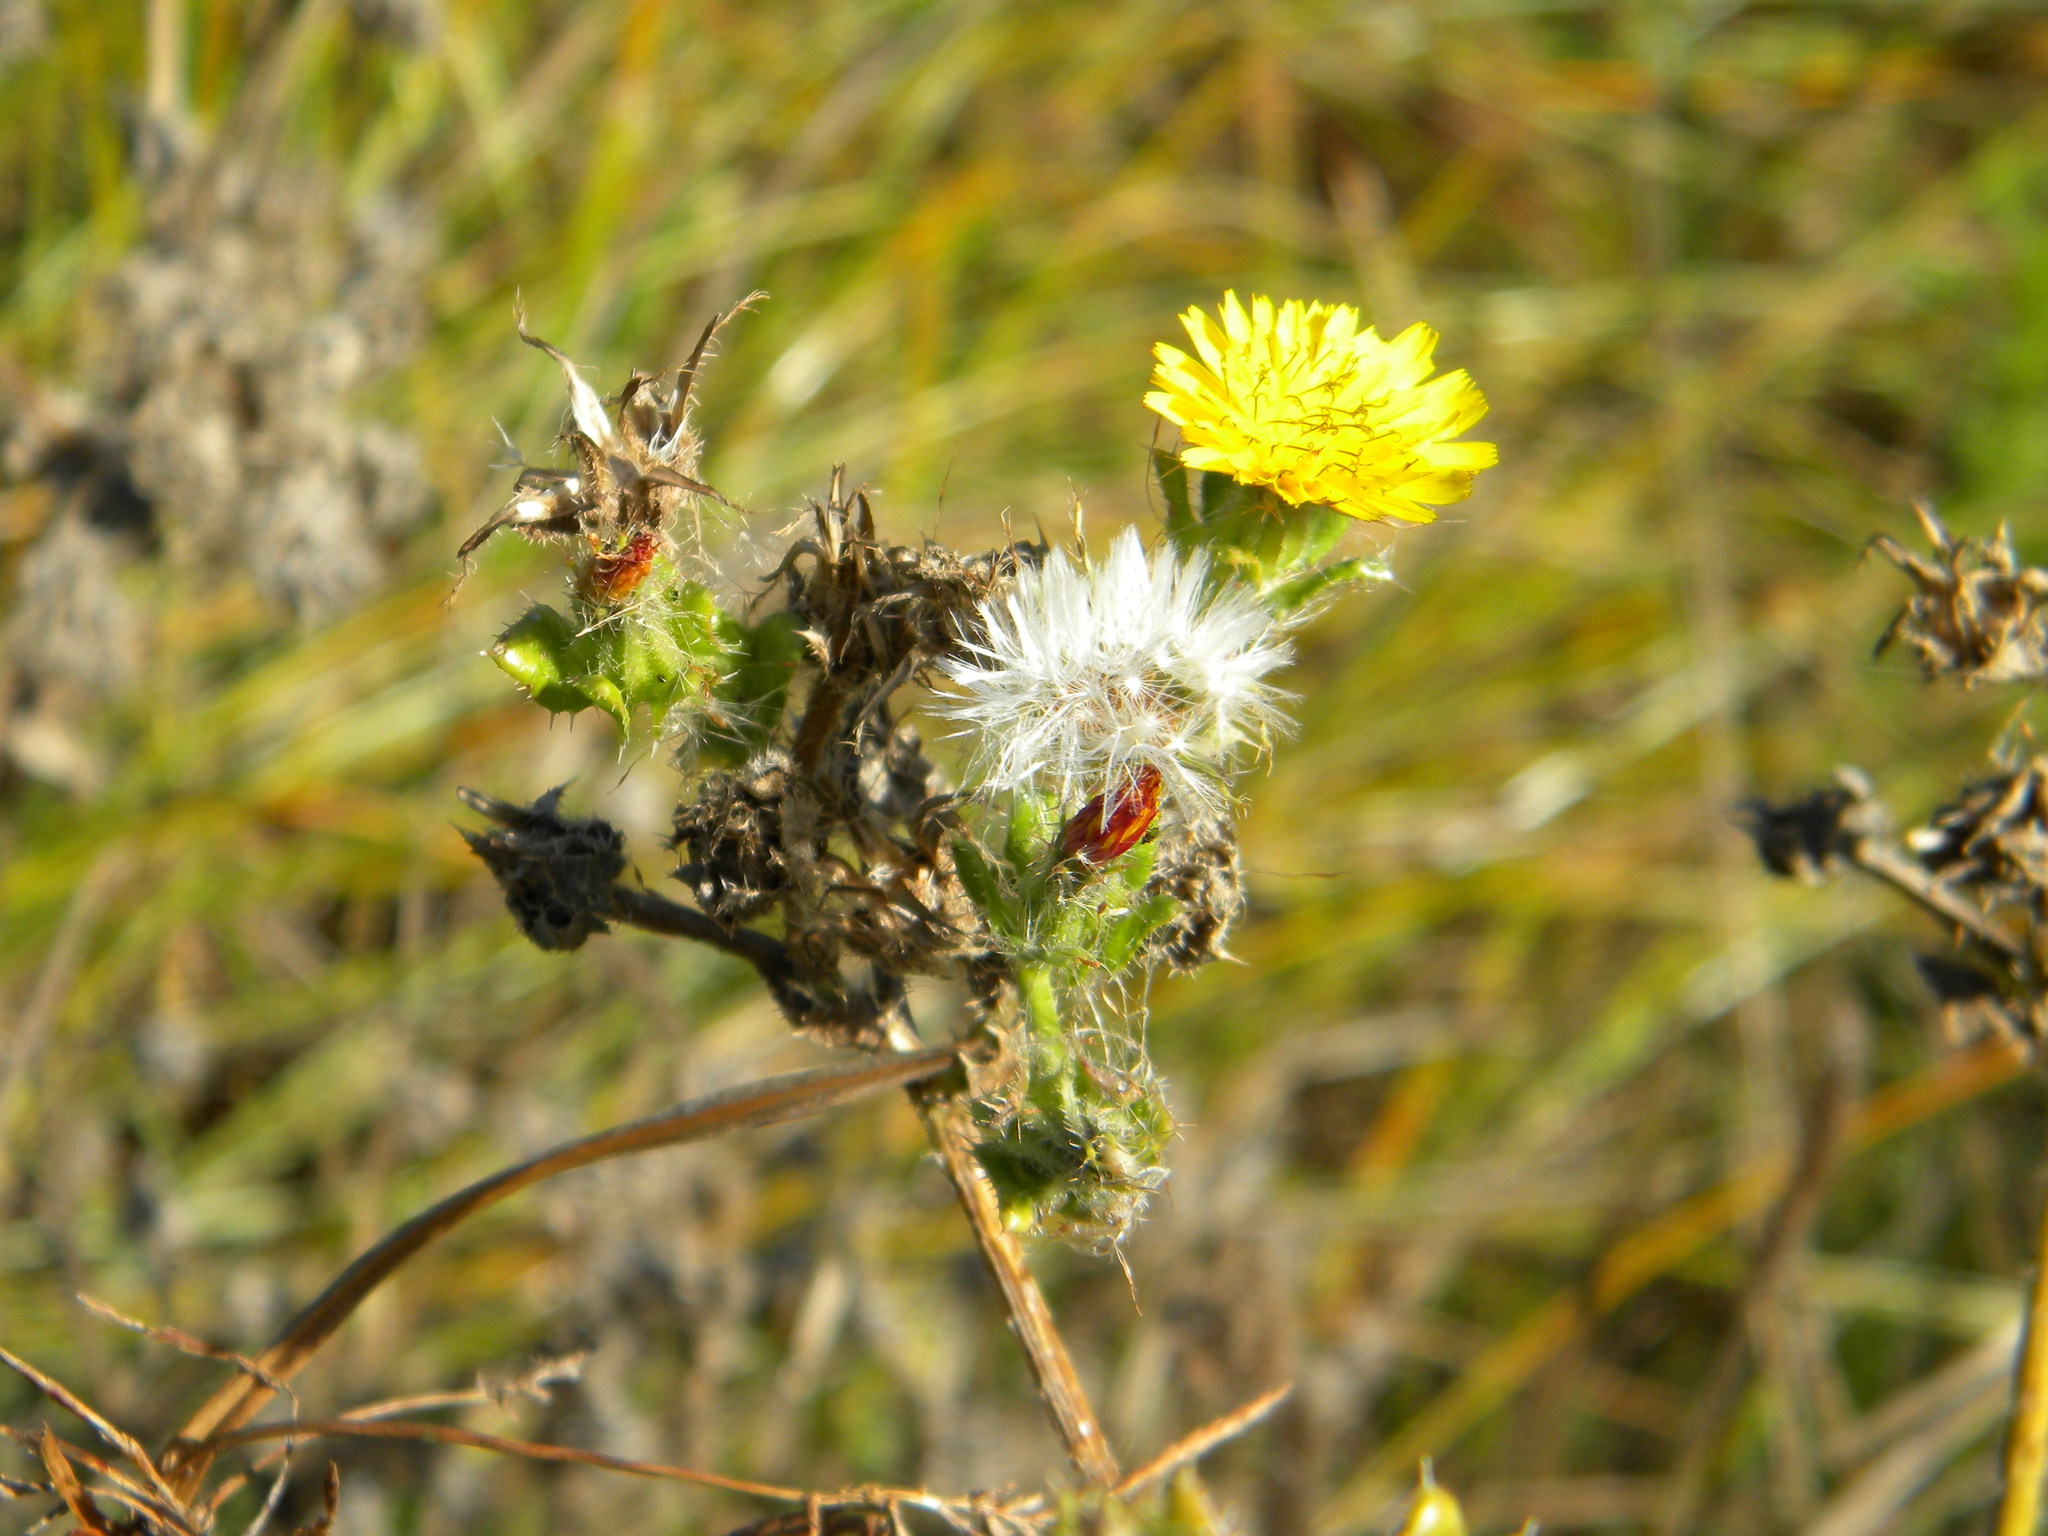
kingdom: Plantae
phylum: Tracheophyta
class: Magnoliopsida
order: Asterales
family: Asteraceae
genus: Helminthotheca
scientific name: Helminthotheca echioides
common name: Ox-tongue
